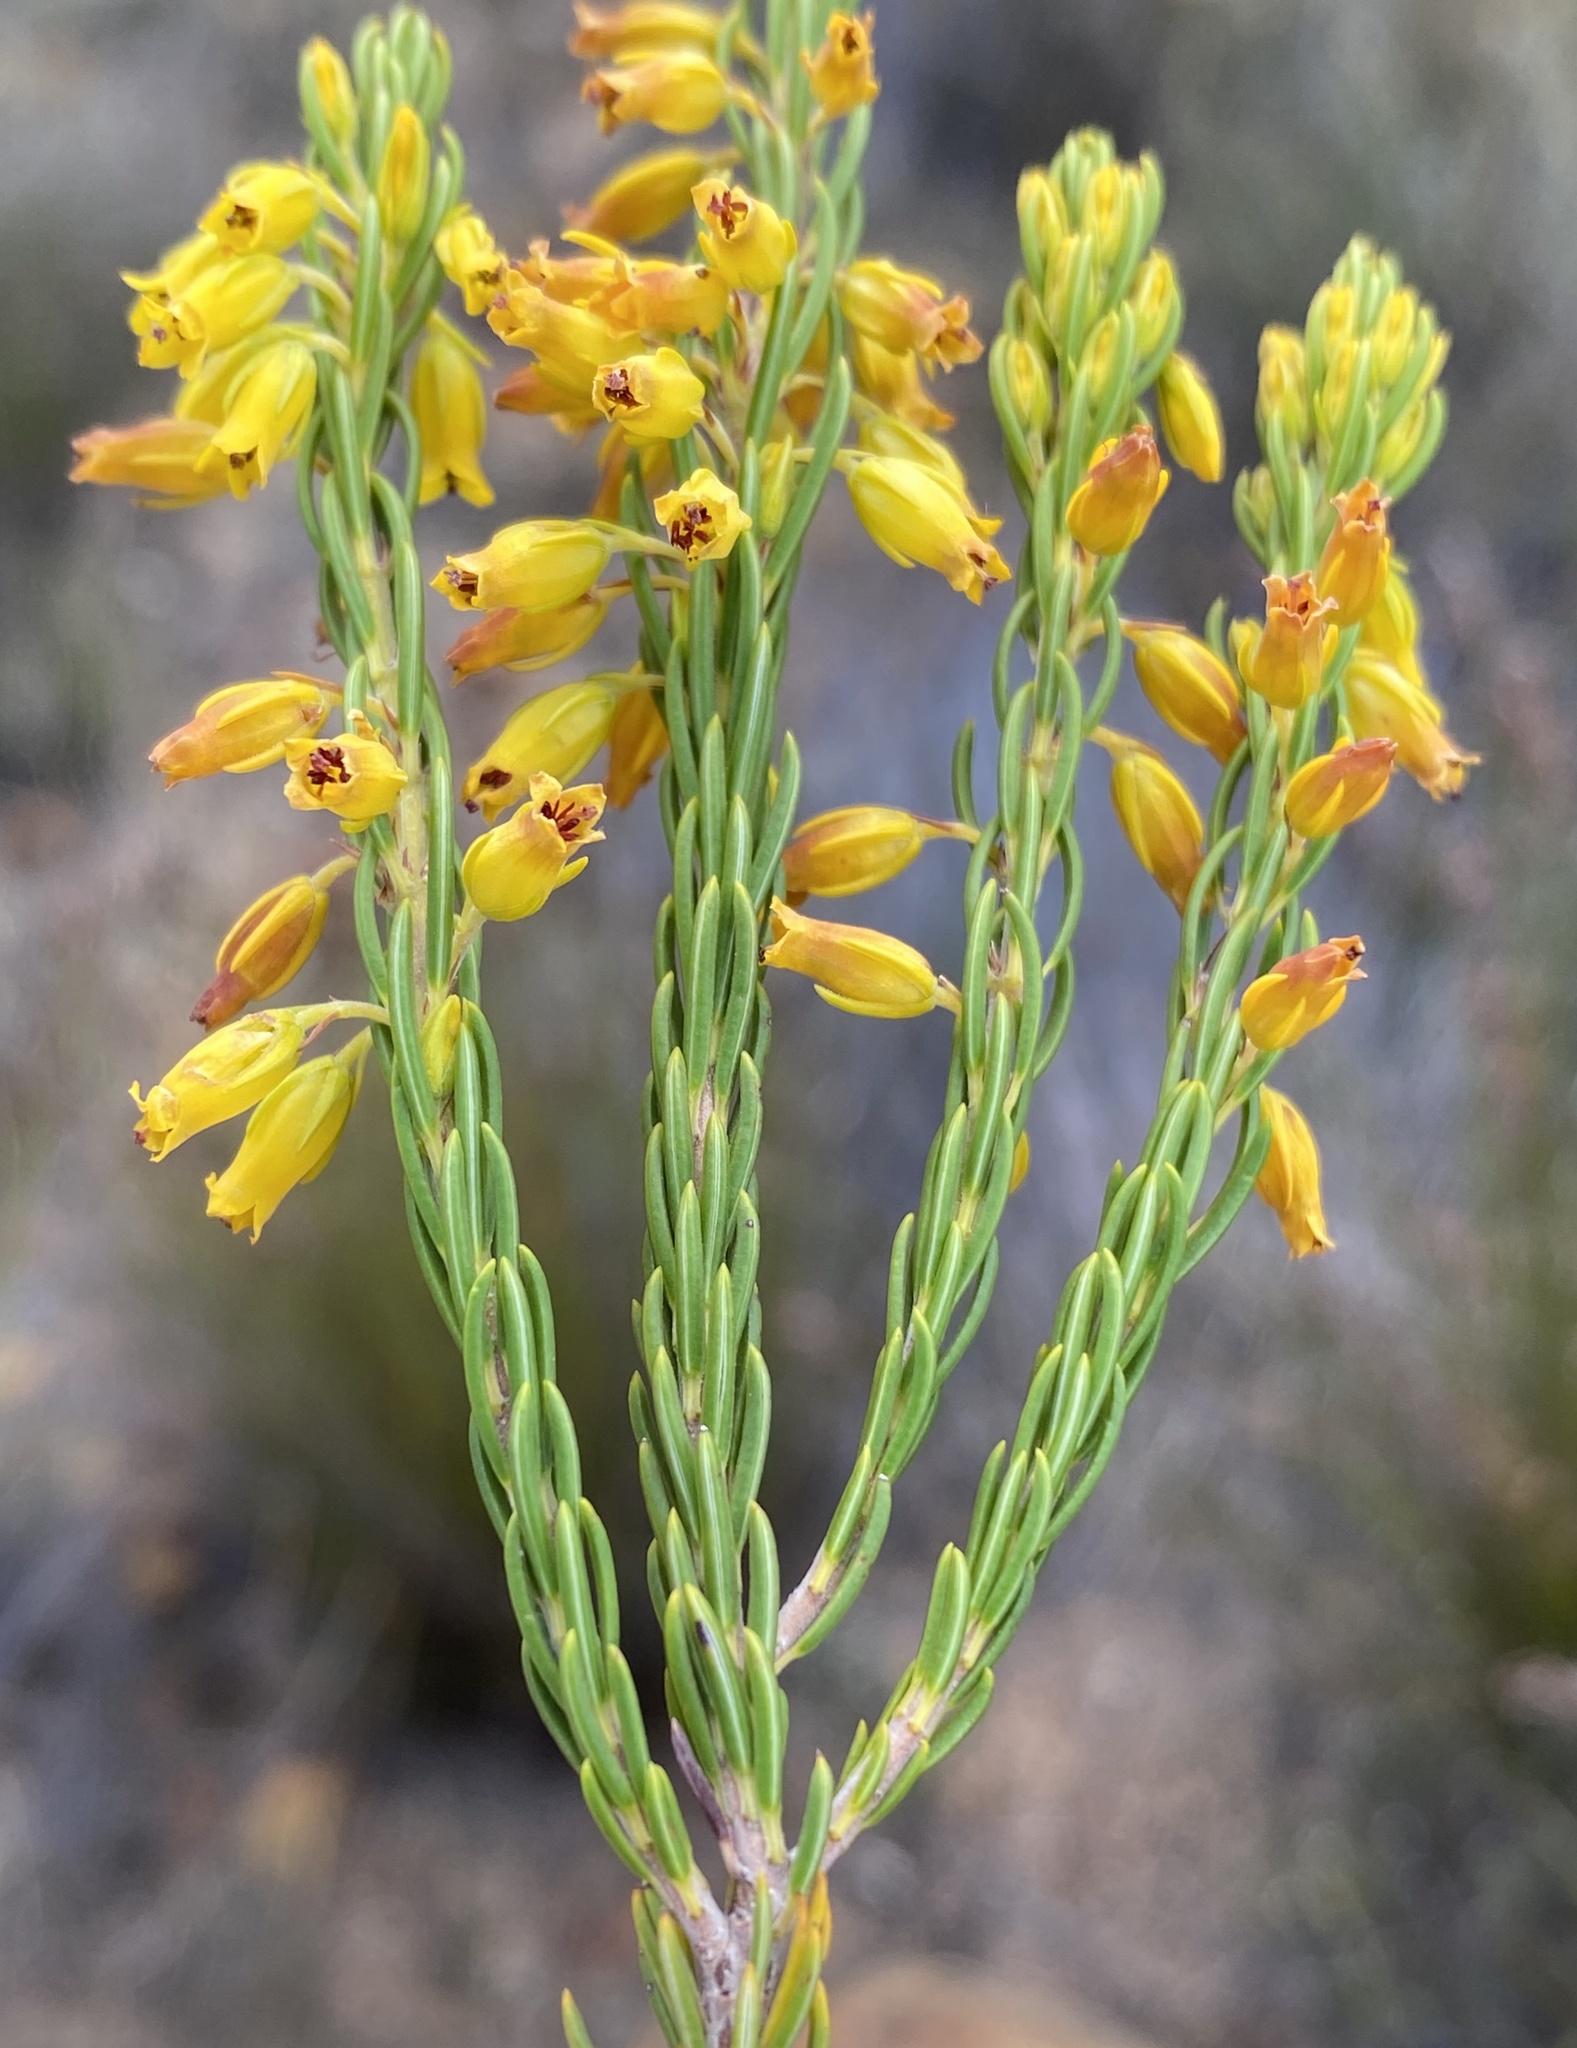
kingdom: Plantae
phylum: Tracheophyta
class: Magnoliopsida
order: Ericales
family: Ericaceae
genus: Erica
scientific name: Erica parilis
